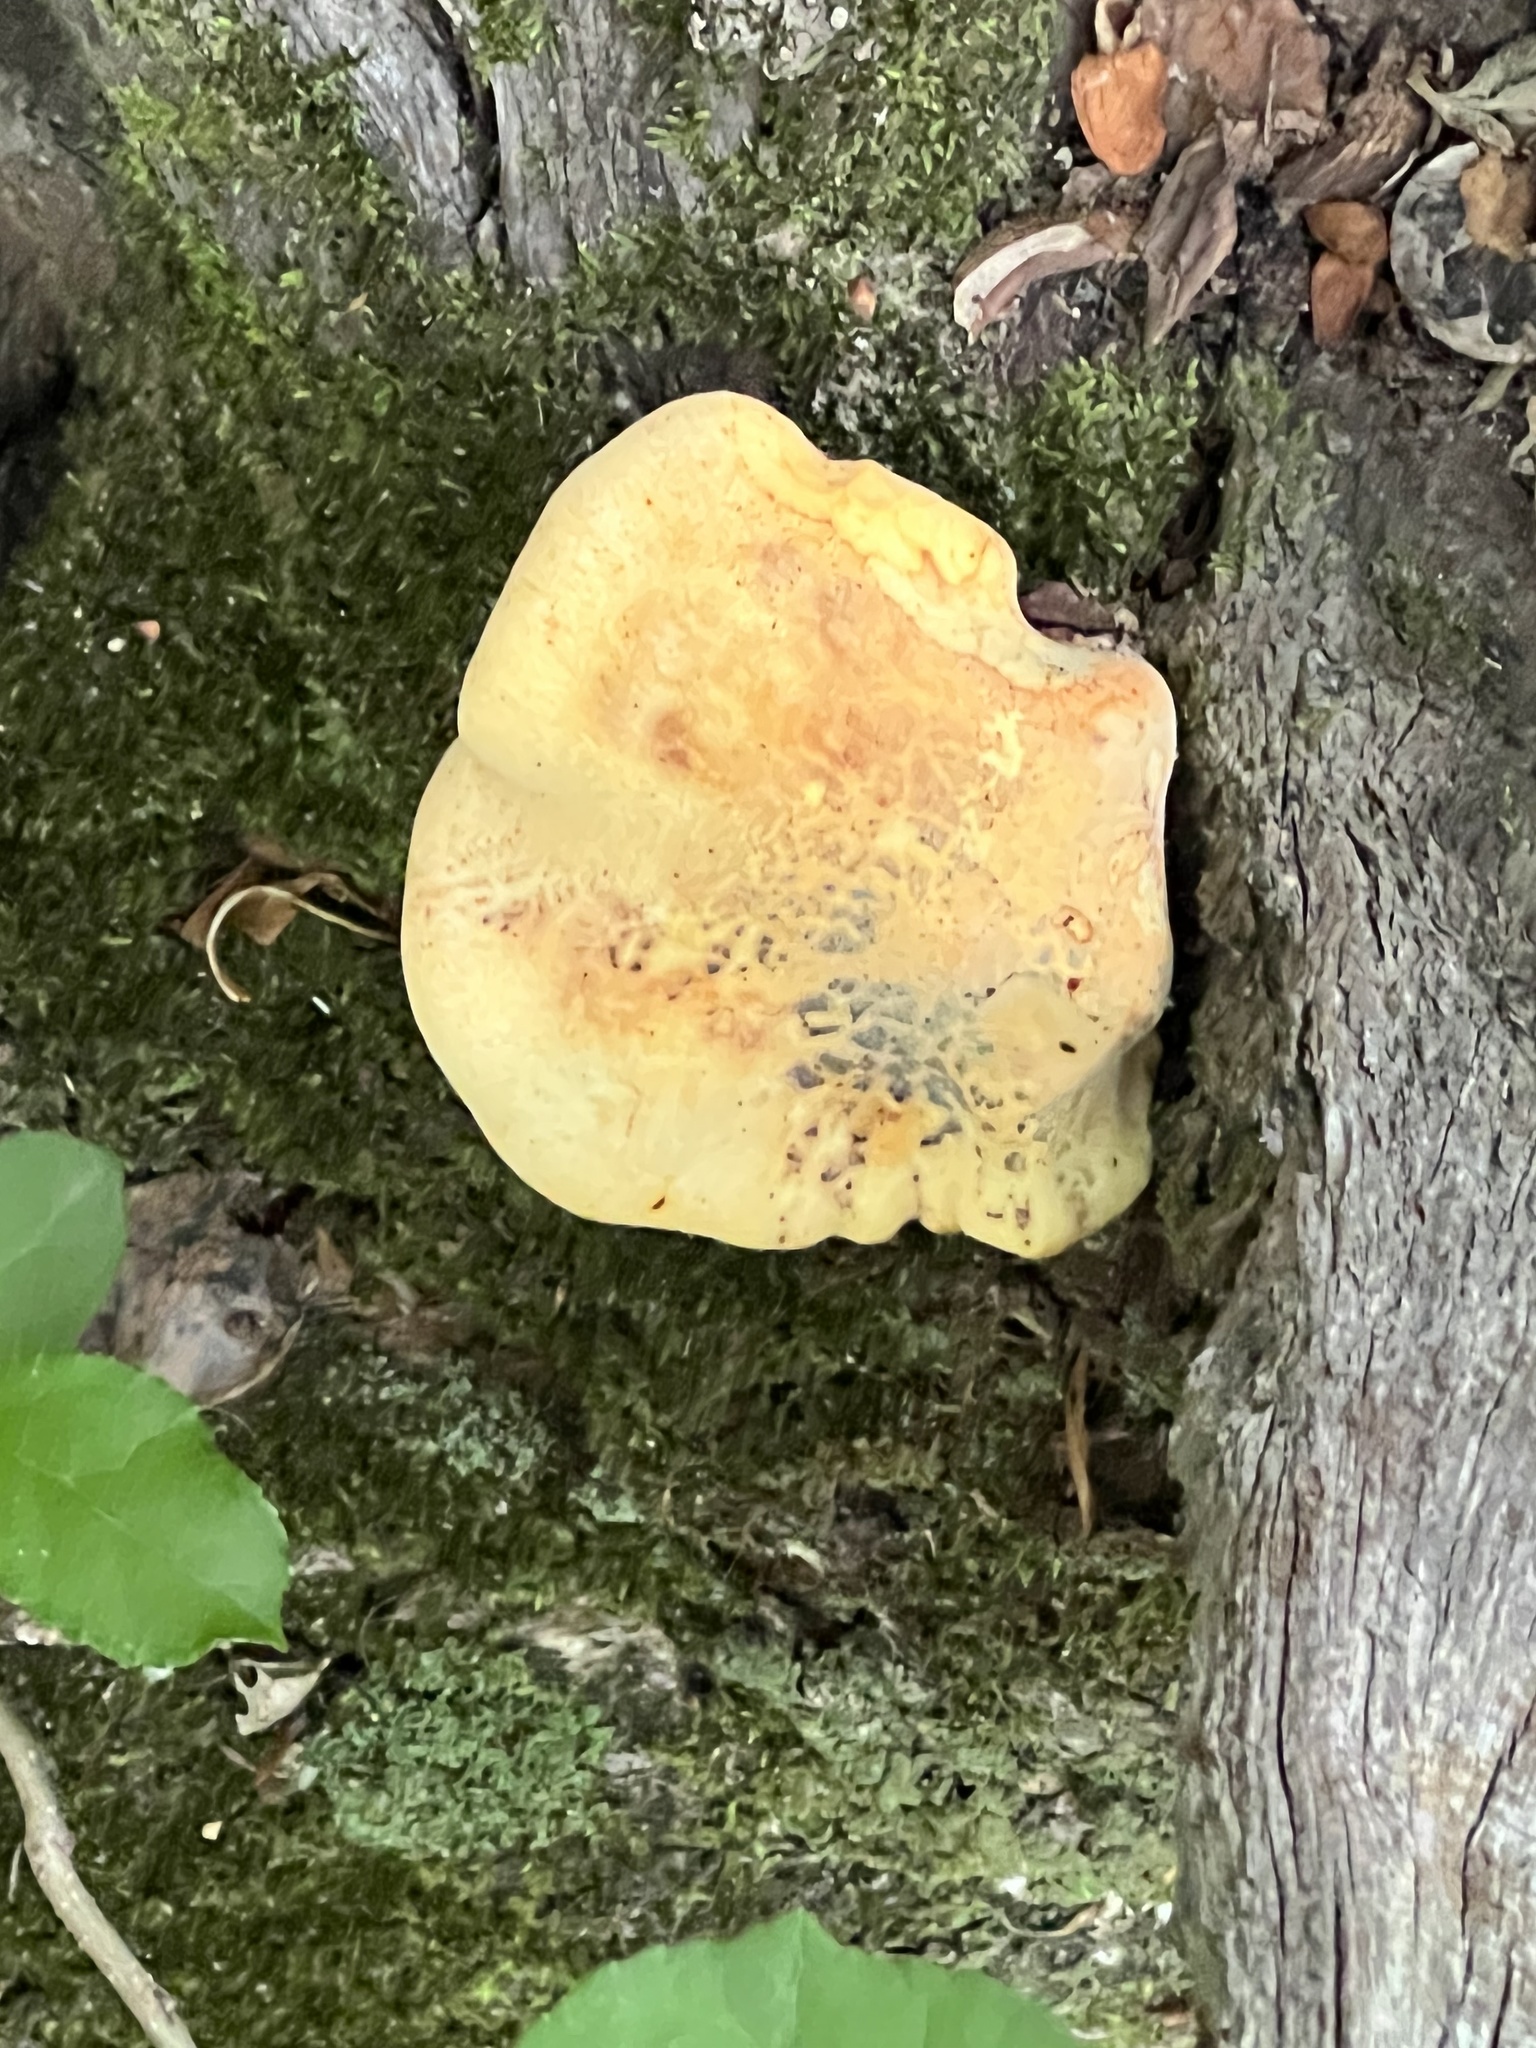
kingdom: Fungi
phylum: Basidiomycota
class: Agaricomycetes
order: Polyporales
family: Fomitopsidaceae
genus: Fomitopsis
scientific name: Fomitopsis
